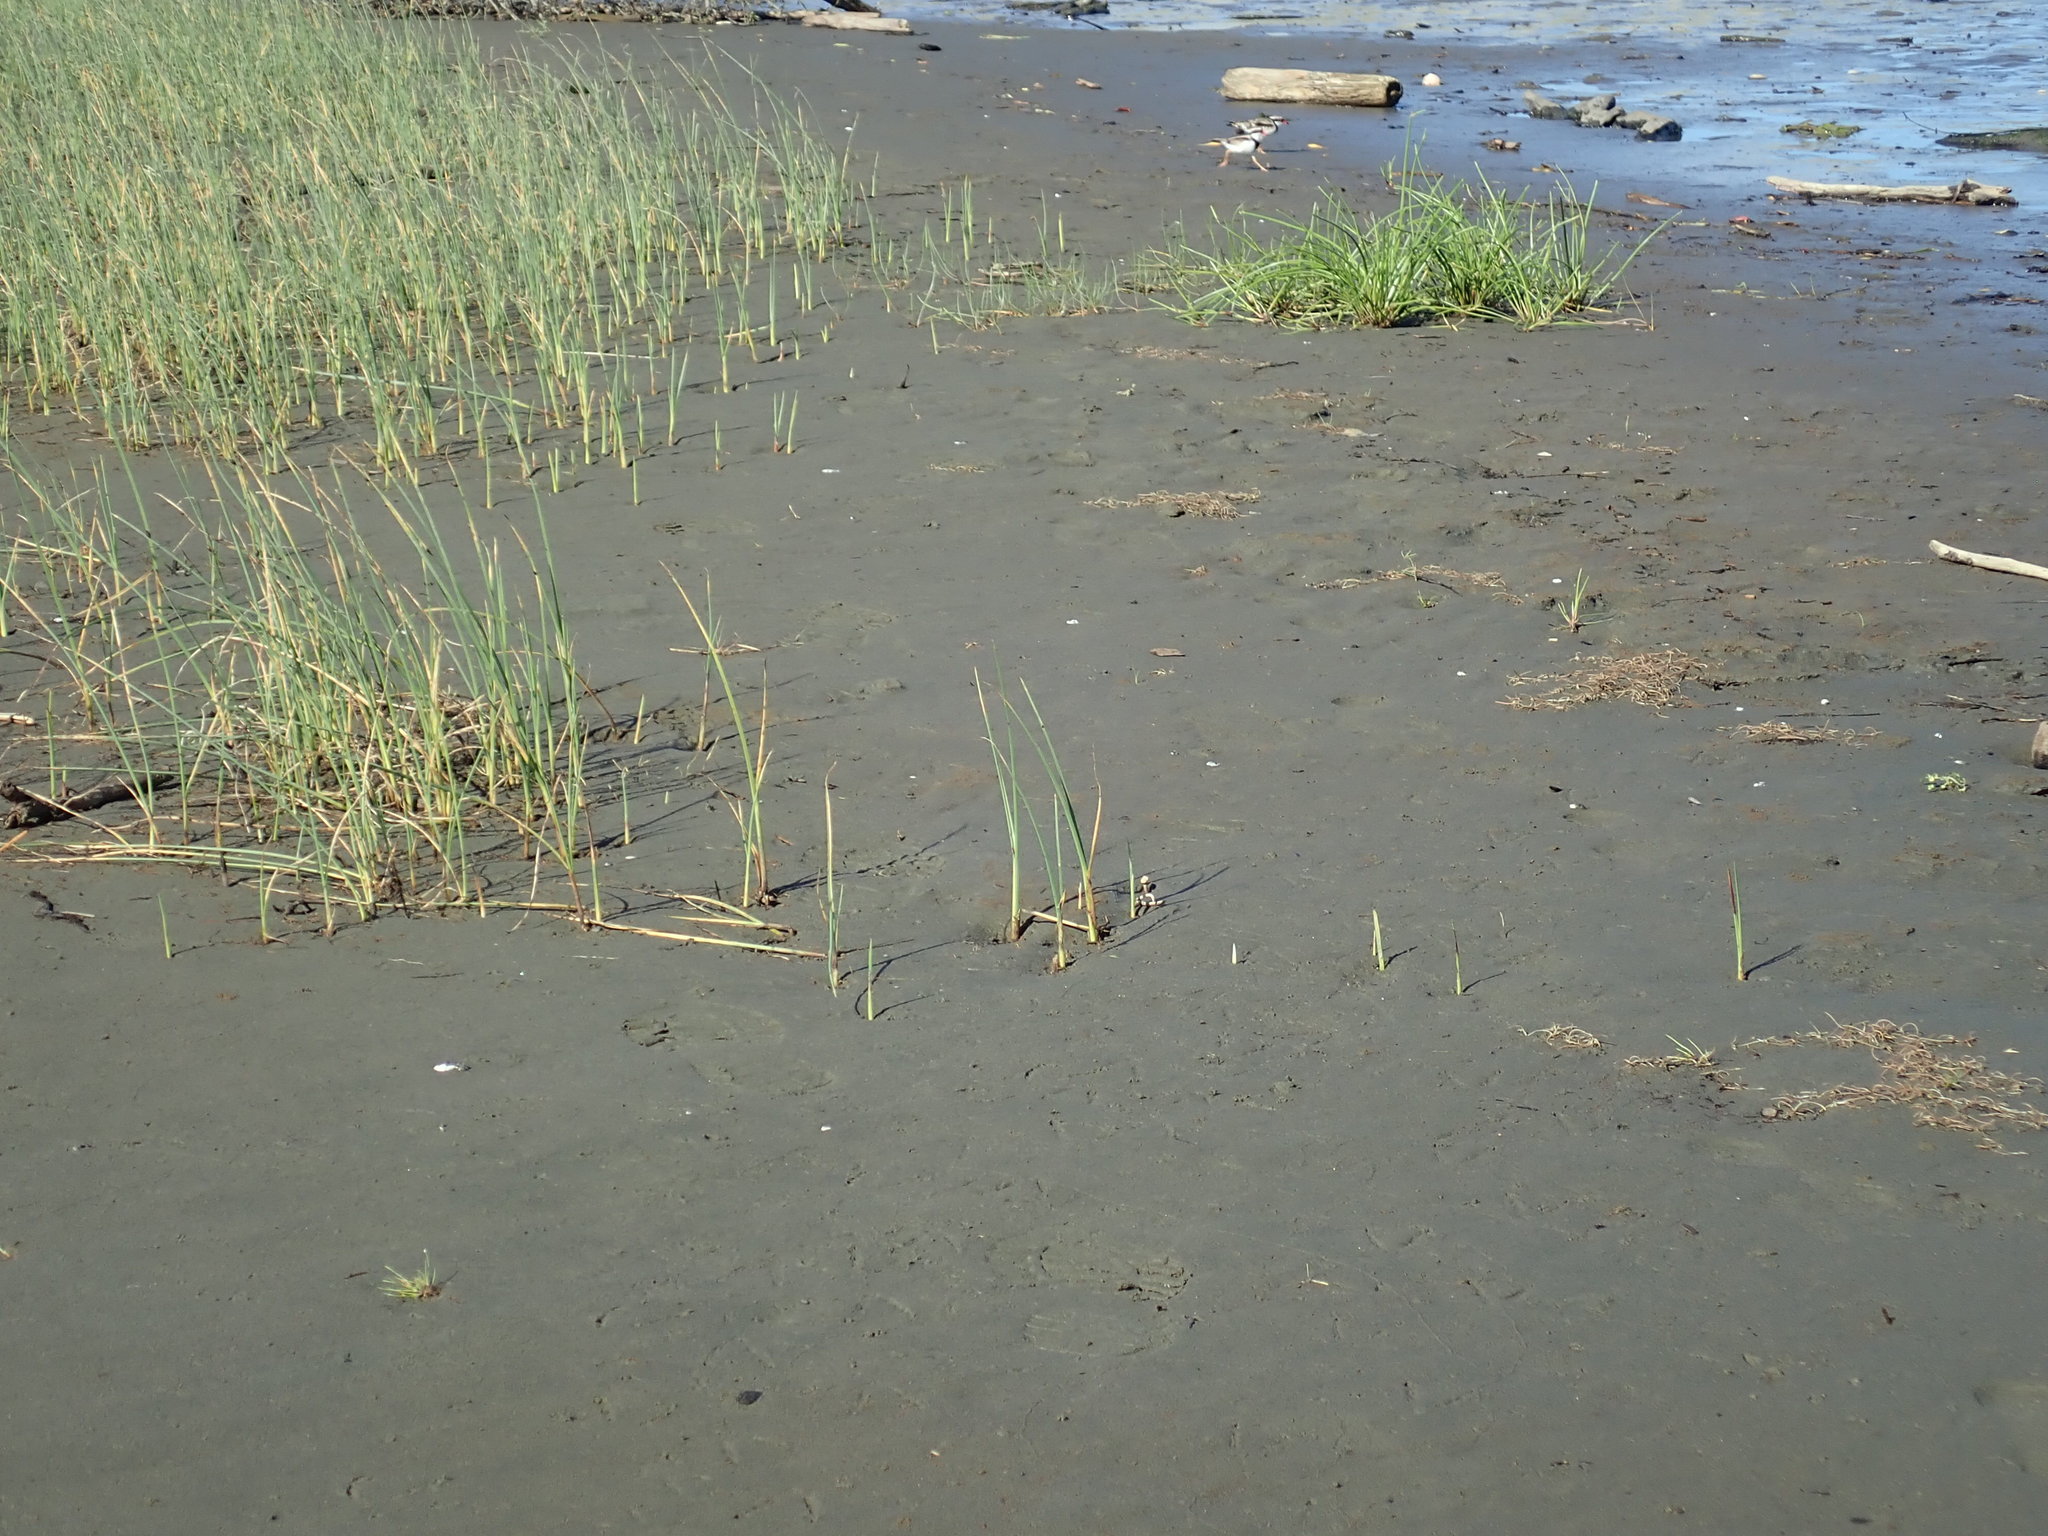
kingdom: Animalia
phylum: Chordata
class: Aves
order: Charadriiformes
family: Charadriidae
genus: Elseyornis
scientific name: Elseyornis melanops
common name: Black-fronted dotterel
